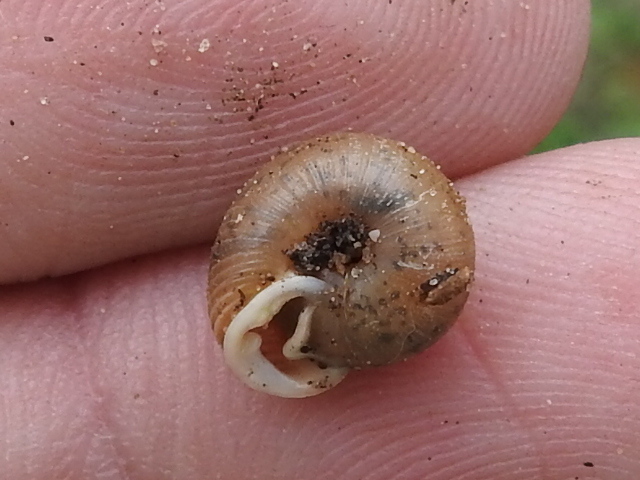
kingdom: Animalia
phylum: Mollusca
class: Gastropoda
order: Stylommatophora
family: Polygyridae
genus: Linisa
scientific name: Linisa texasiana
